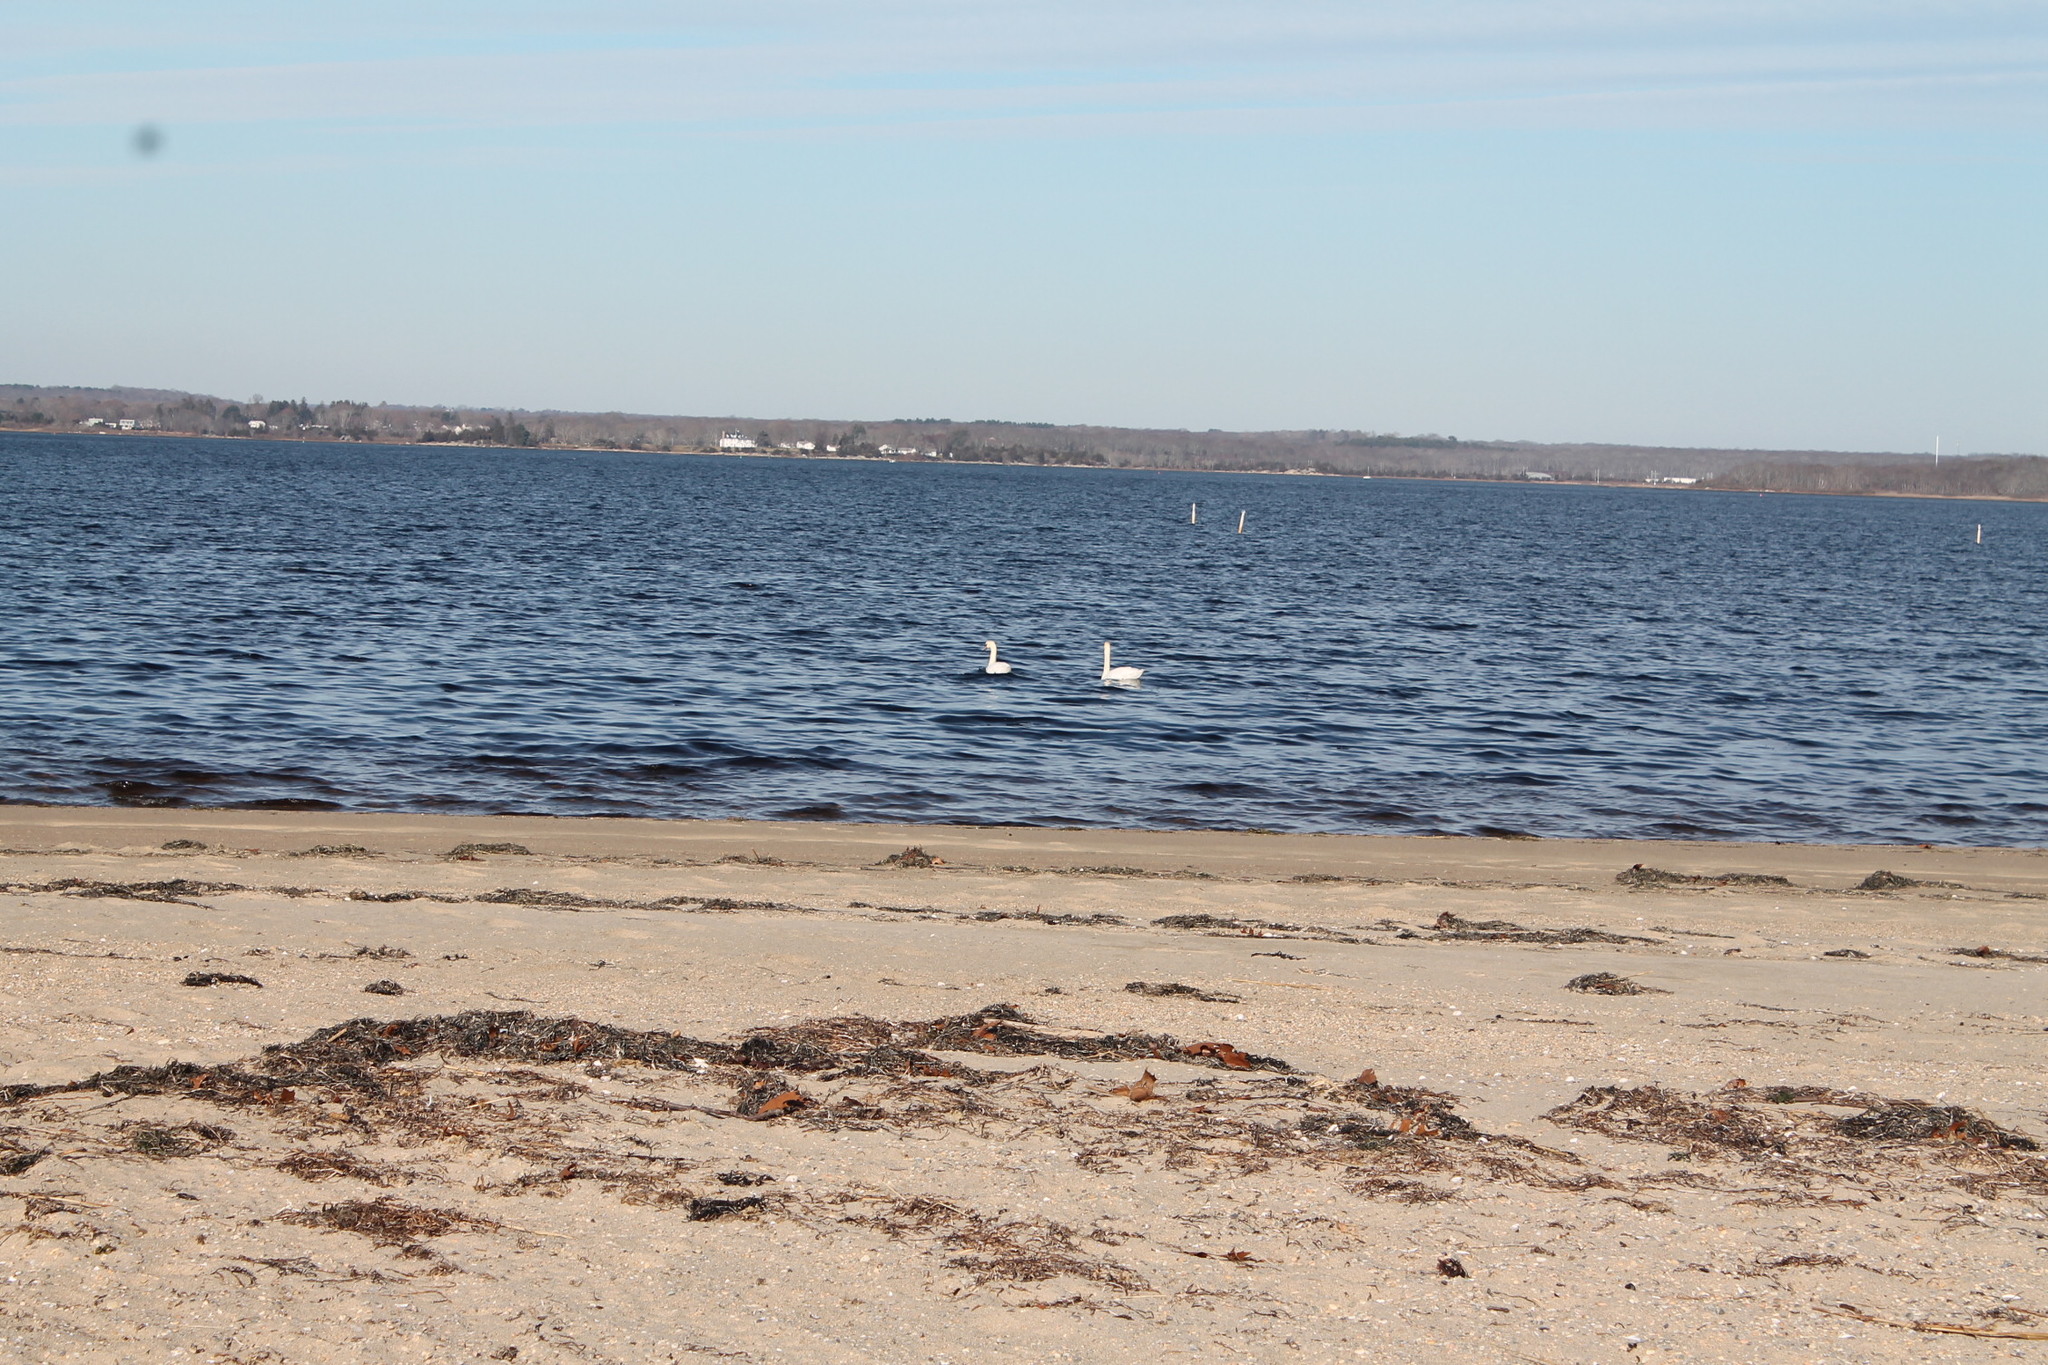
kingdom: Animalia
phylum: Chordata
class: Aves
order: Anseriformes
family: Anatidae
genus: Cygnus
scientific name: Cygnus olor
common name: Mute swan
